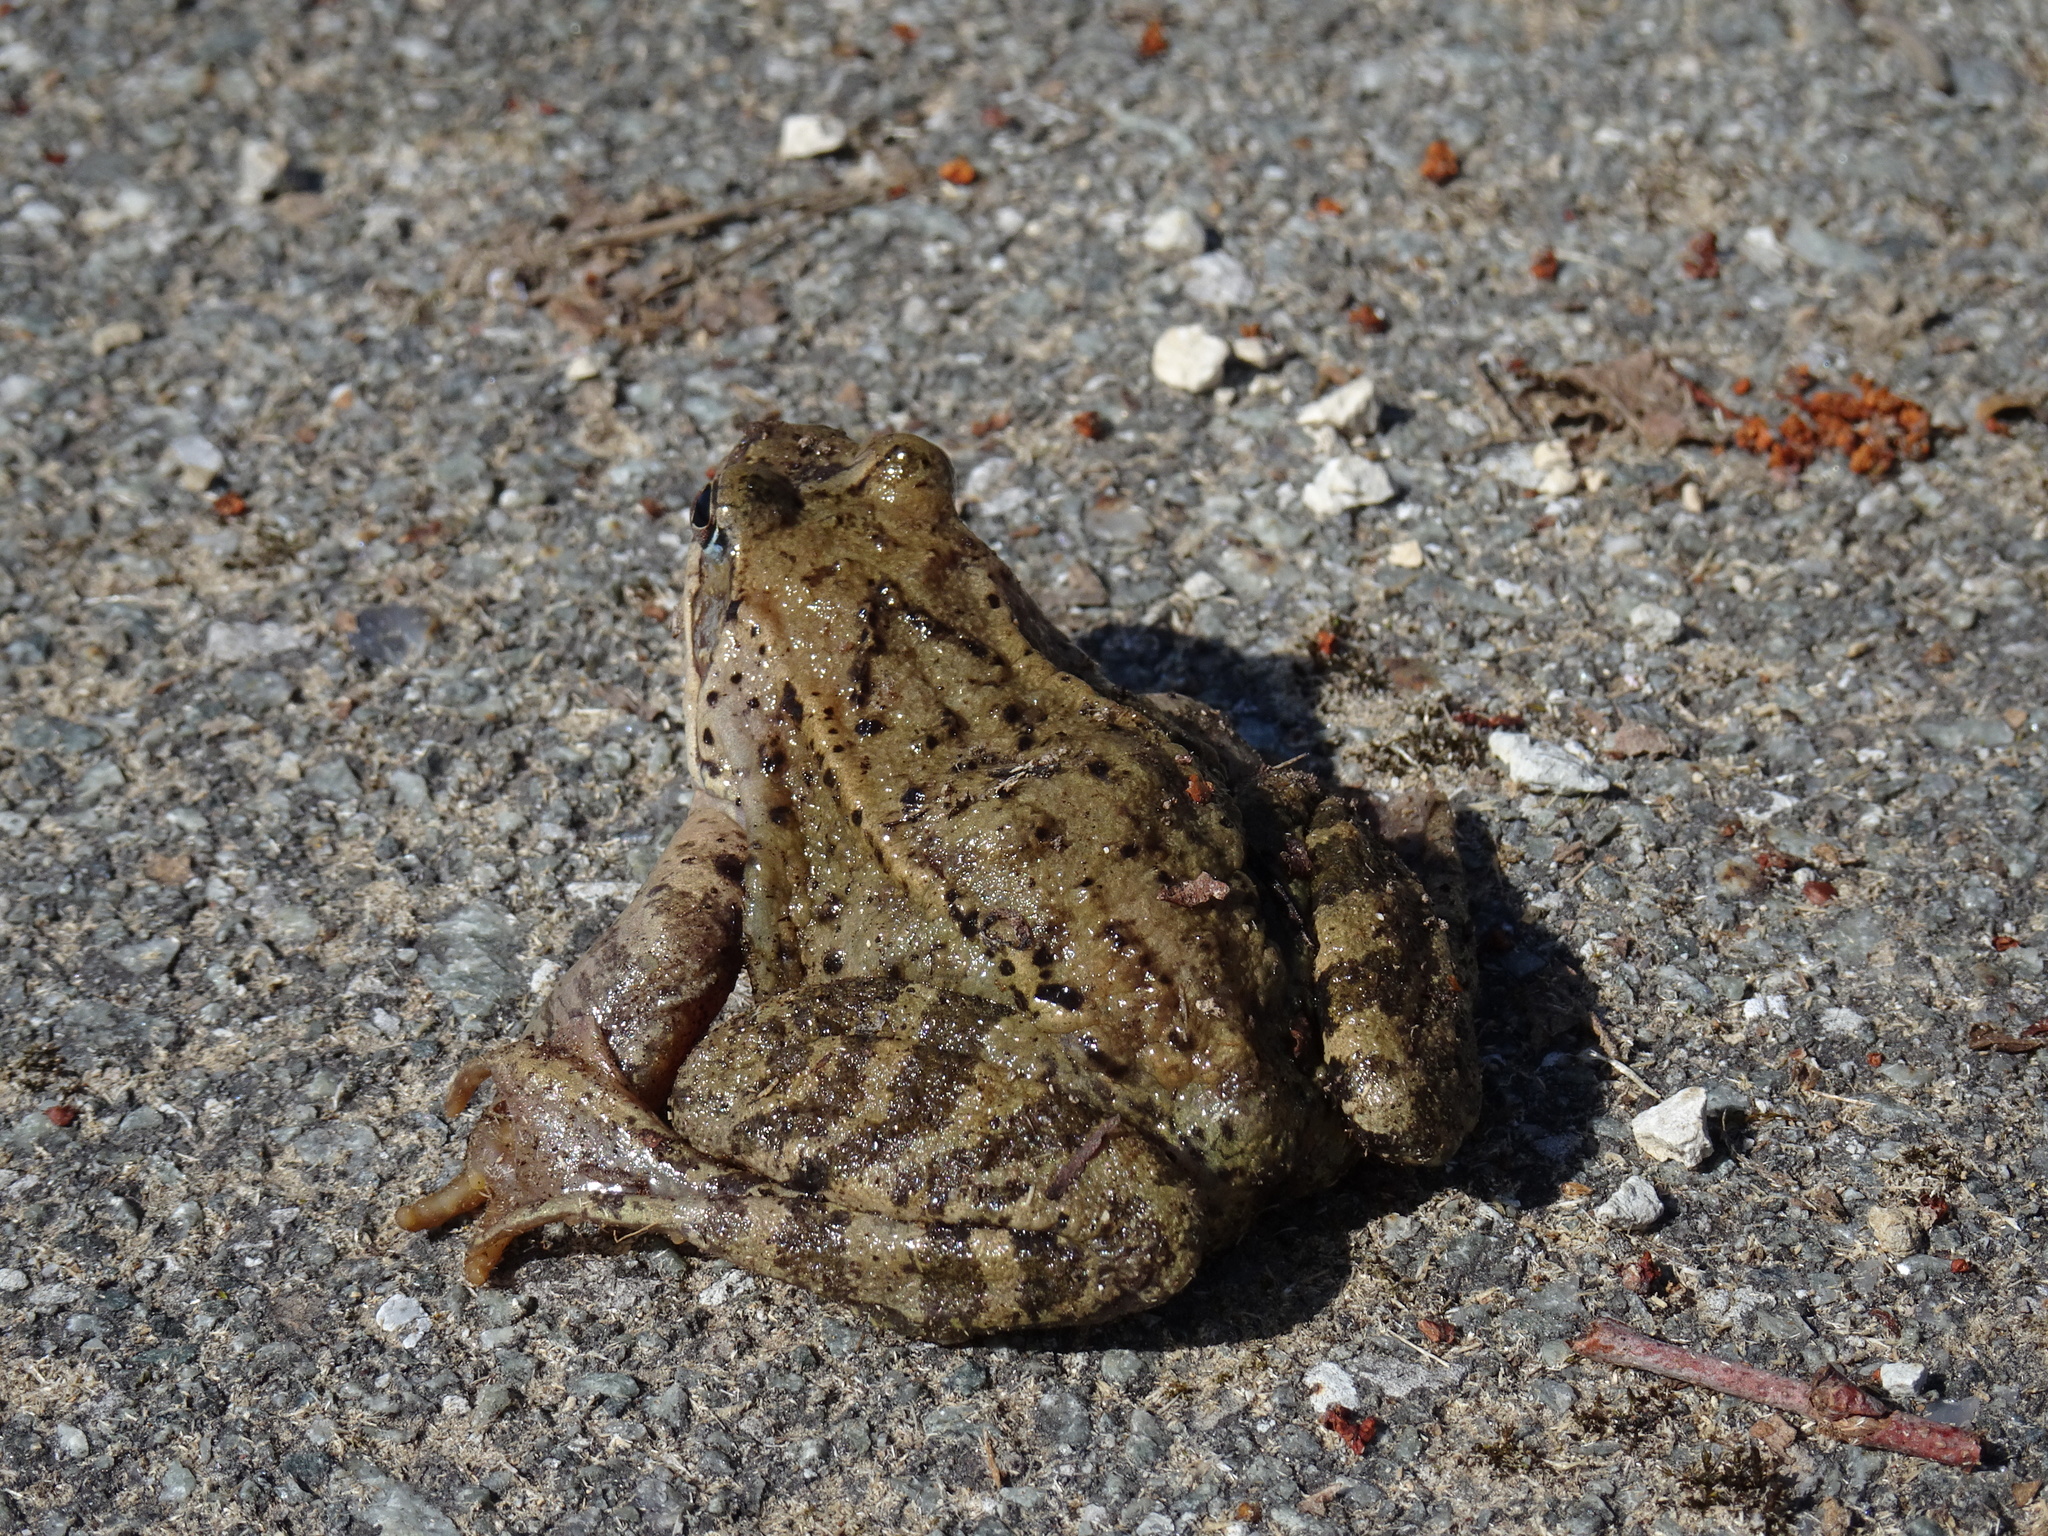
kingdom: Animalia
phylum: Chordata
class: Amphibia
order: Anura
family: Ranidae
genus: Rana
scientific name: Rana temporaria
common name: Common frog
